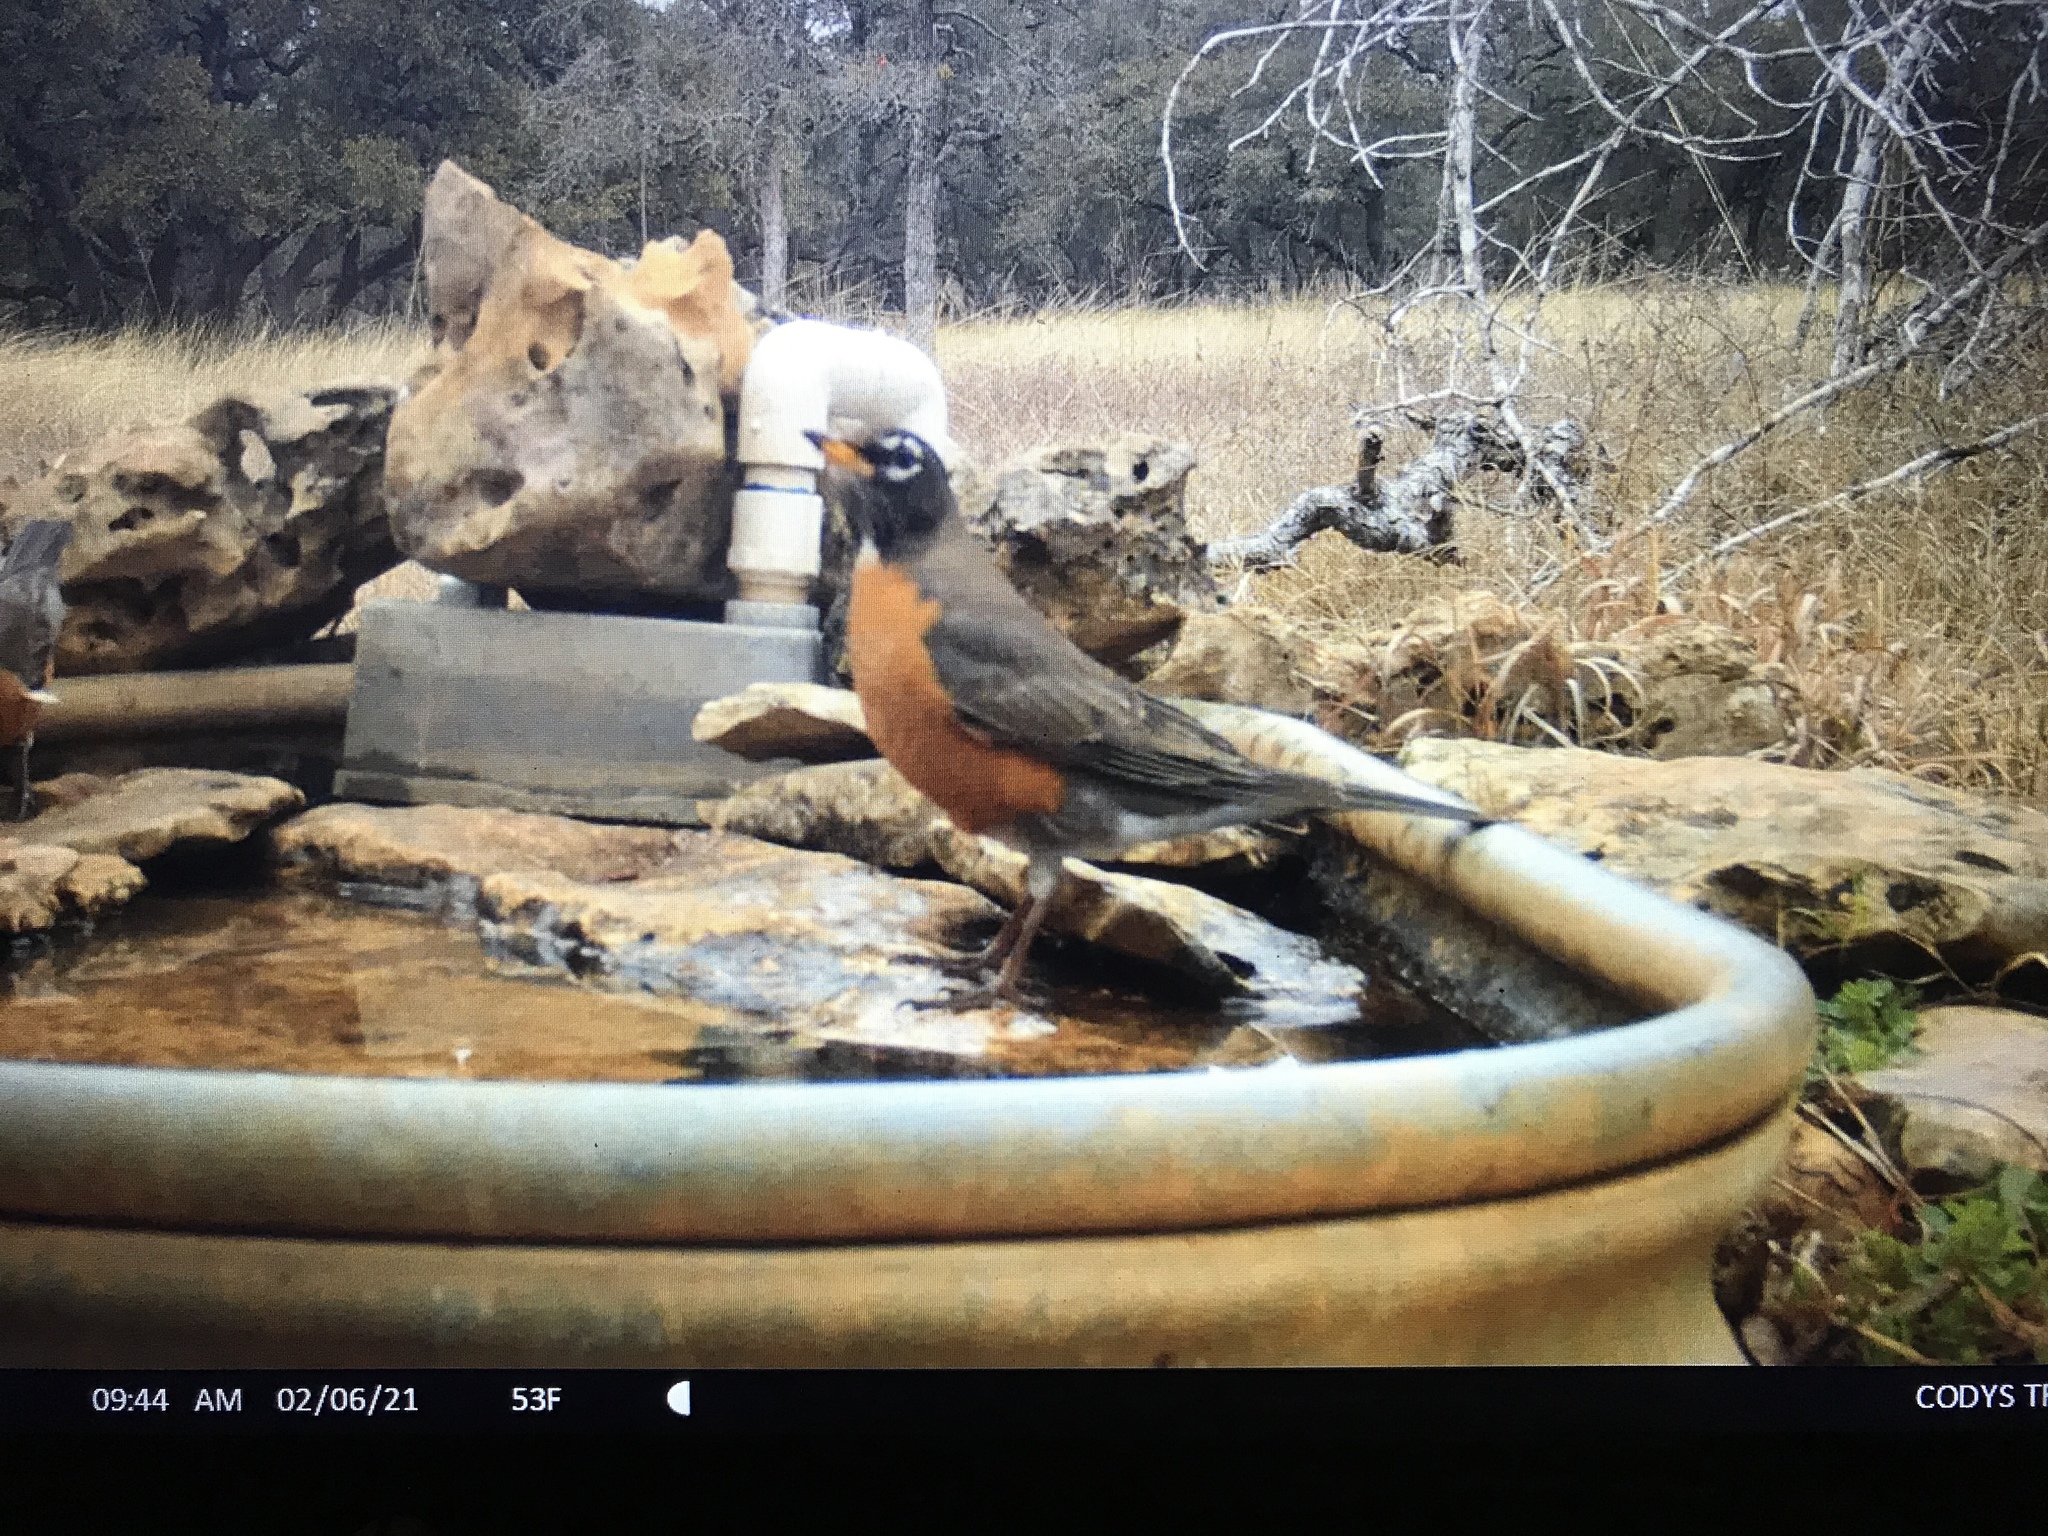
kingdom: Animalia
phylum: Chordata
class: Aves
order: Passeriformes
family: Turdidae
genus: Turdus
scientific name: Turdus migratorius
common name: American robin
